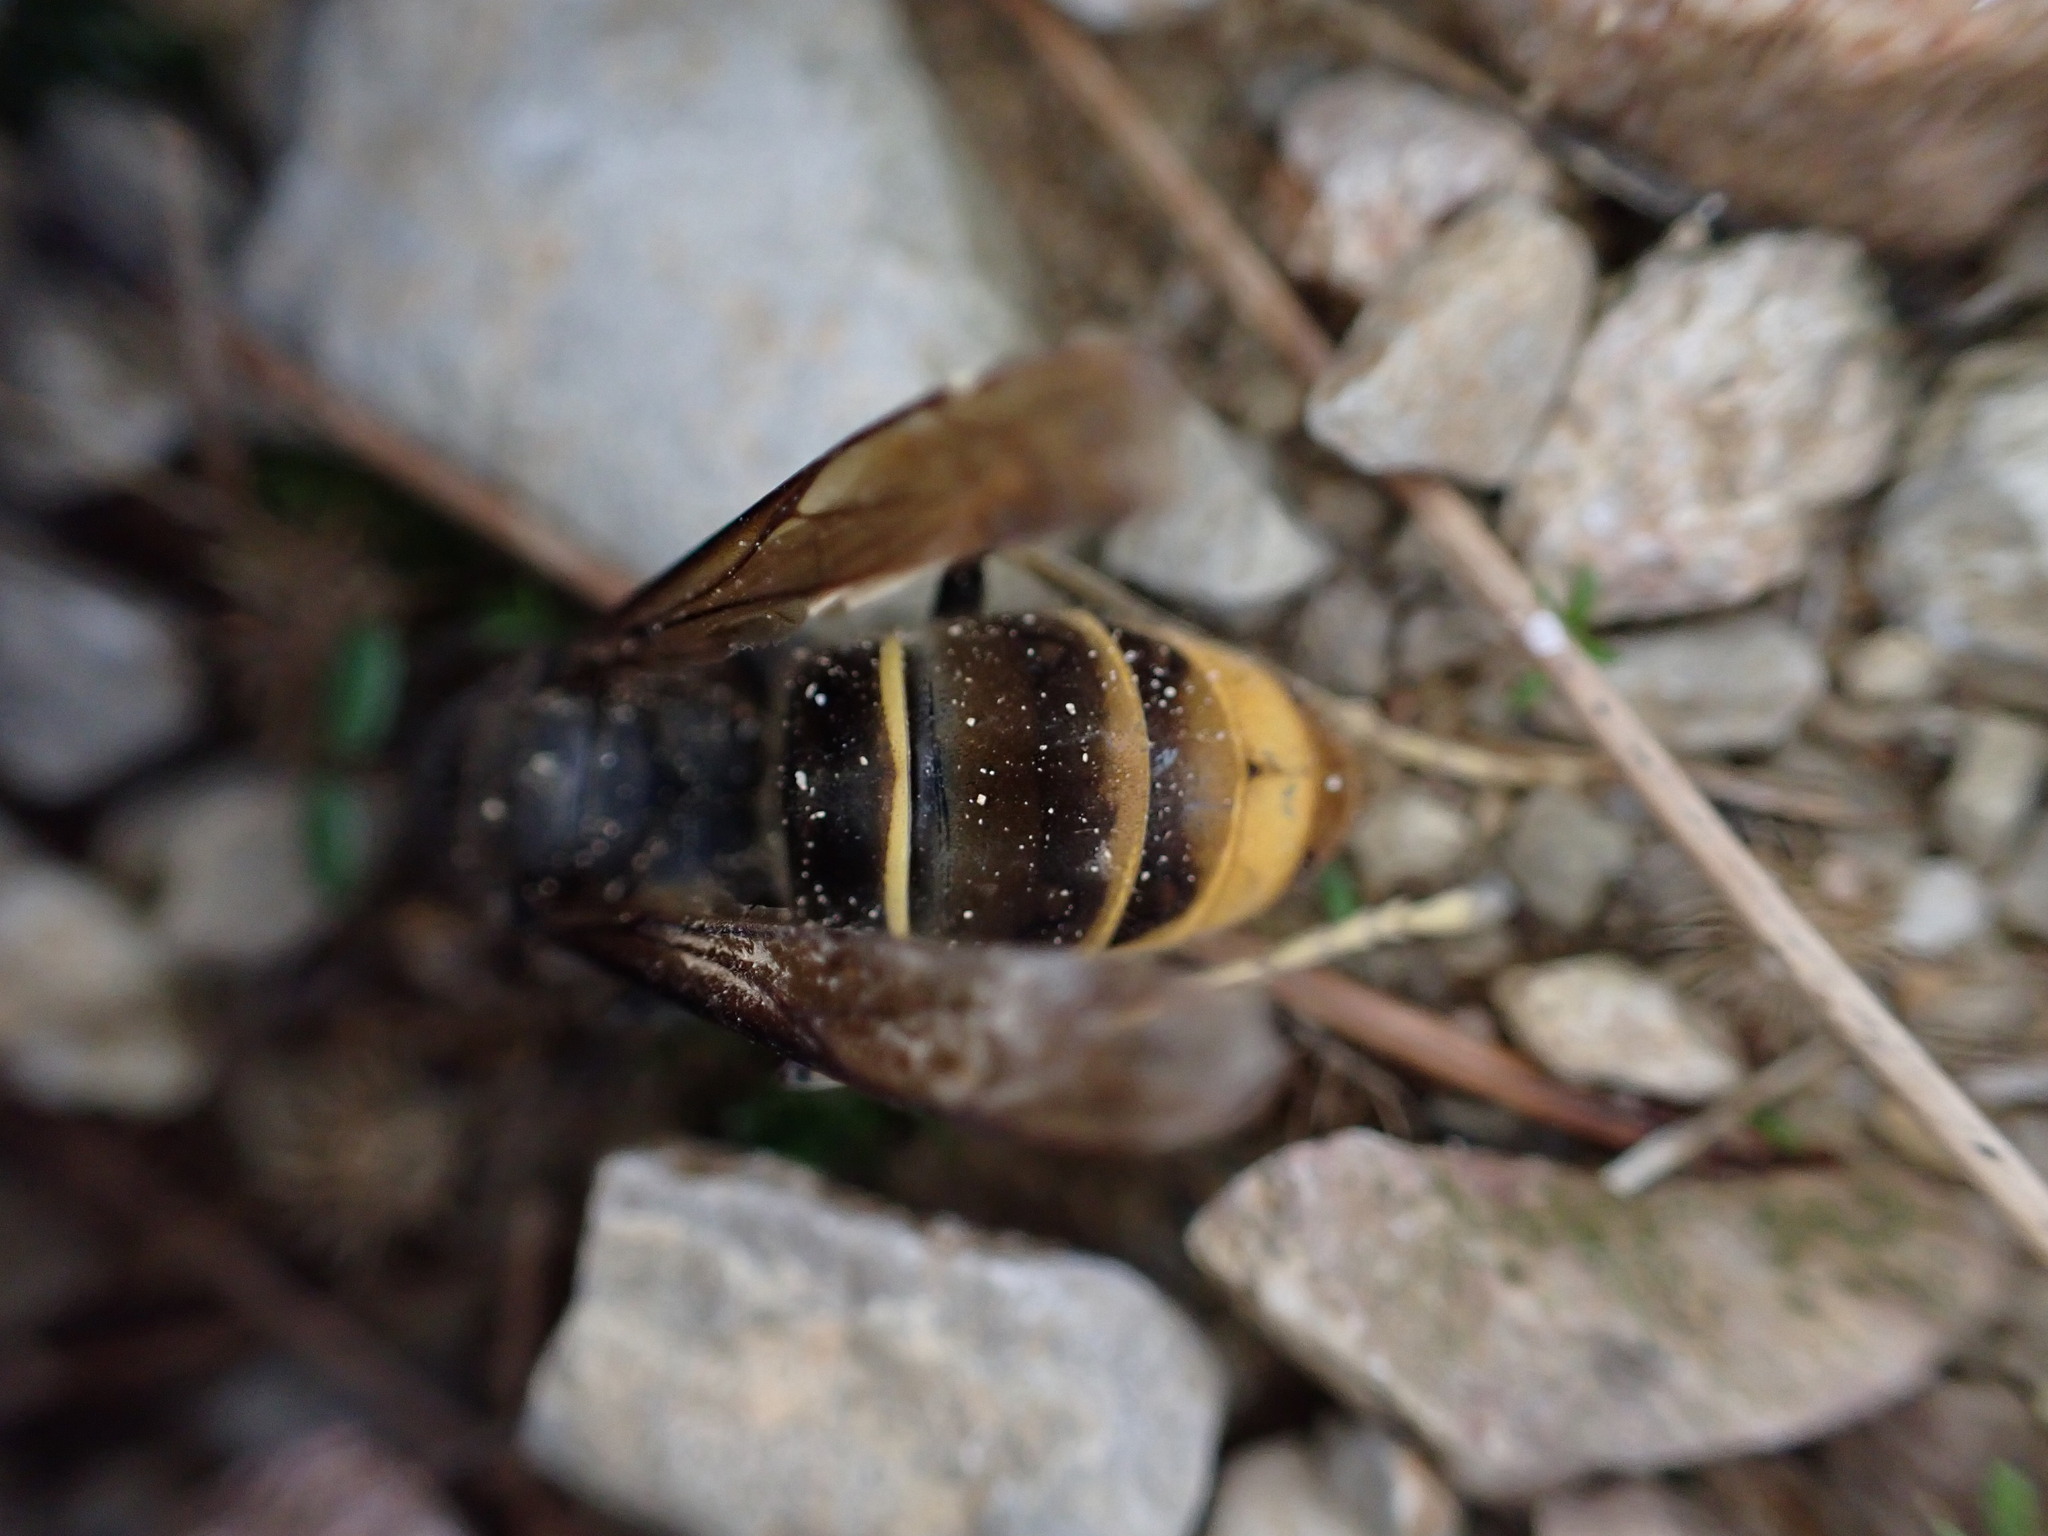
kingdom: Animalia
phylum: Arthropoda
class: Insecta
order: Hymenoptera
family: Vespidae
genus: Vespa
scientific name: Vespa velutina
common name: Asian hornet
